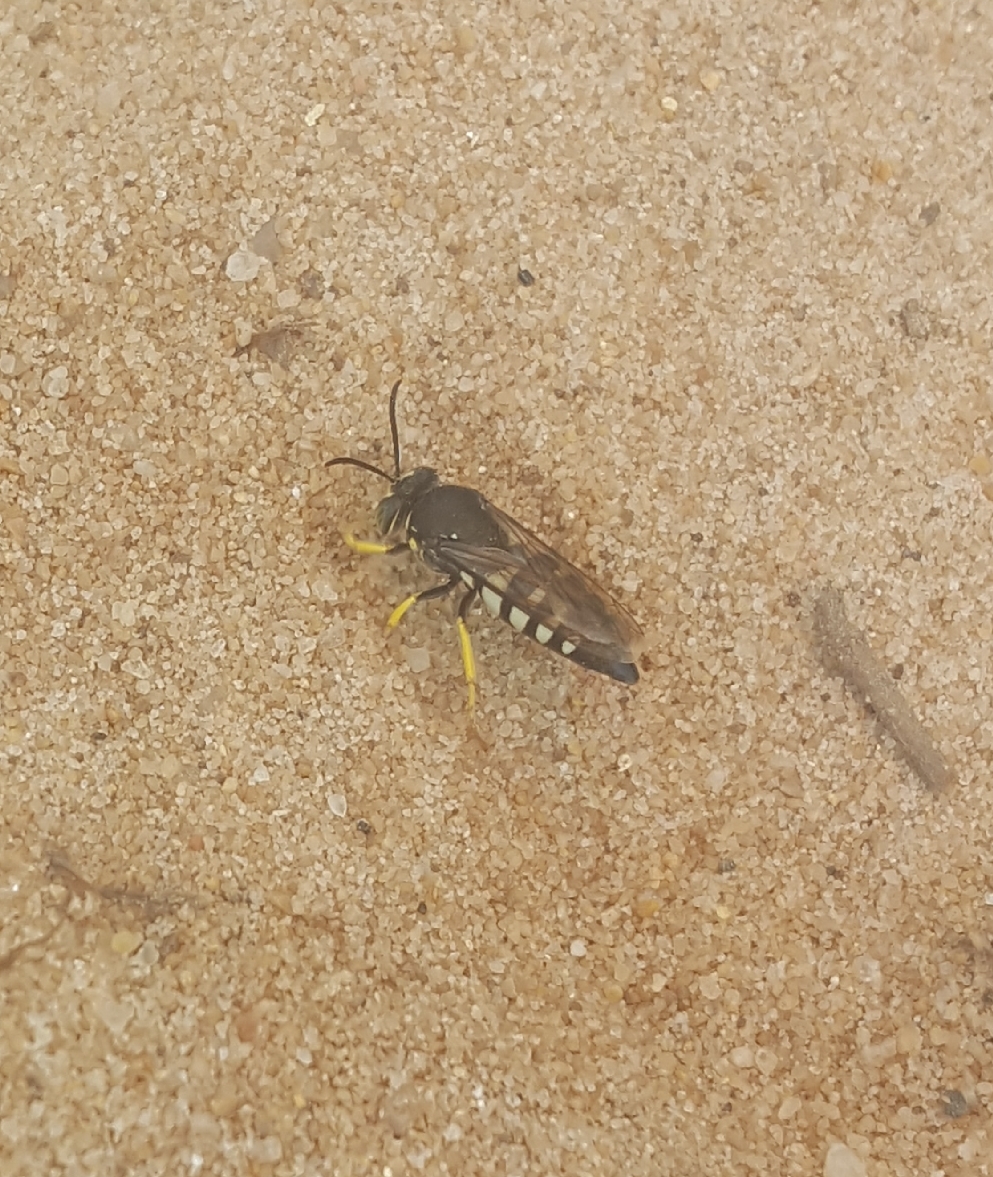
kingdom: Animalia
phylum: Arthropoda
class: Insecta
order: Hymenoptera
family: Crabronidae
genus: Bicyrtes
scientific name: Bicyrtes quadrifasciatus
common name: Four-banded stink bug hunter wasp
